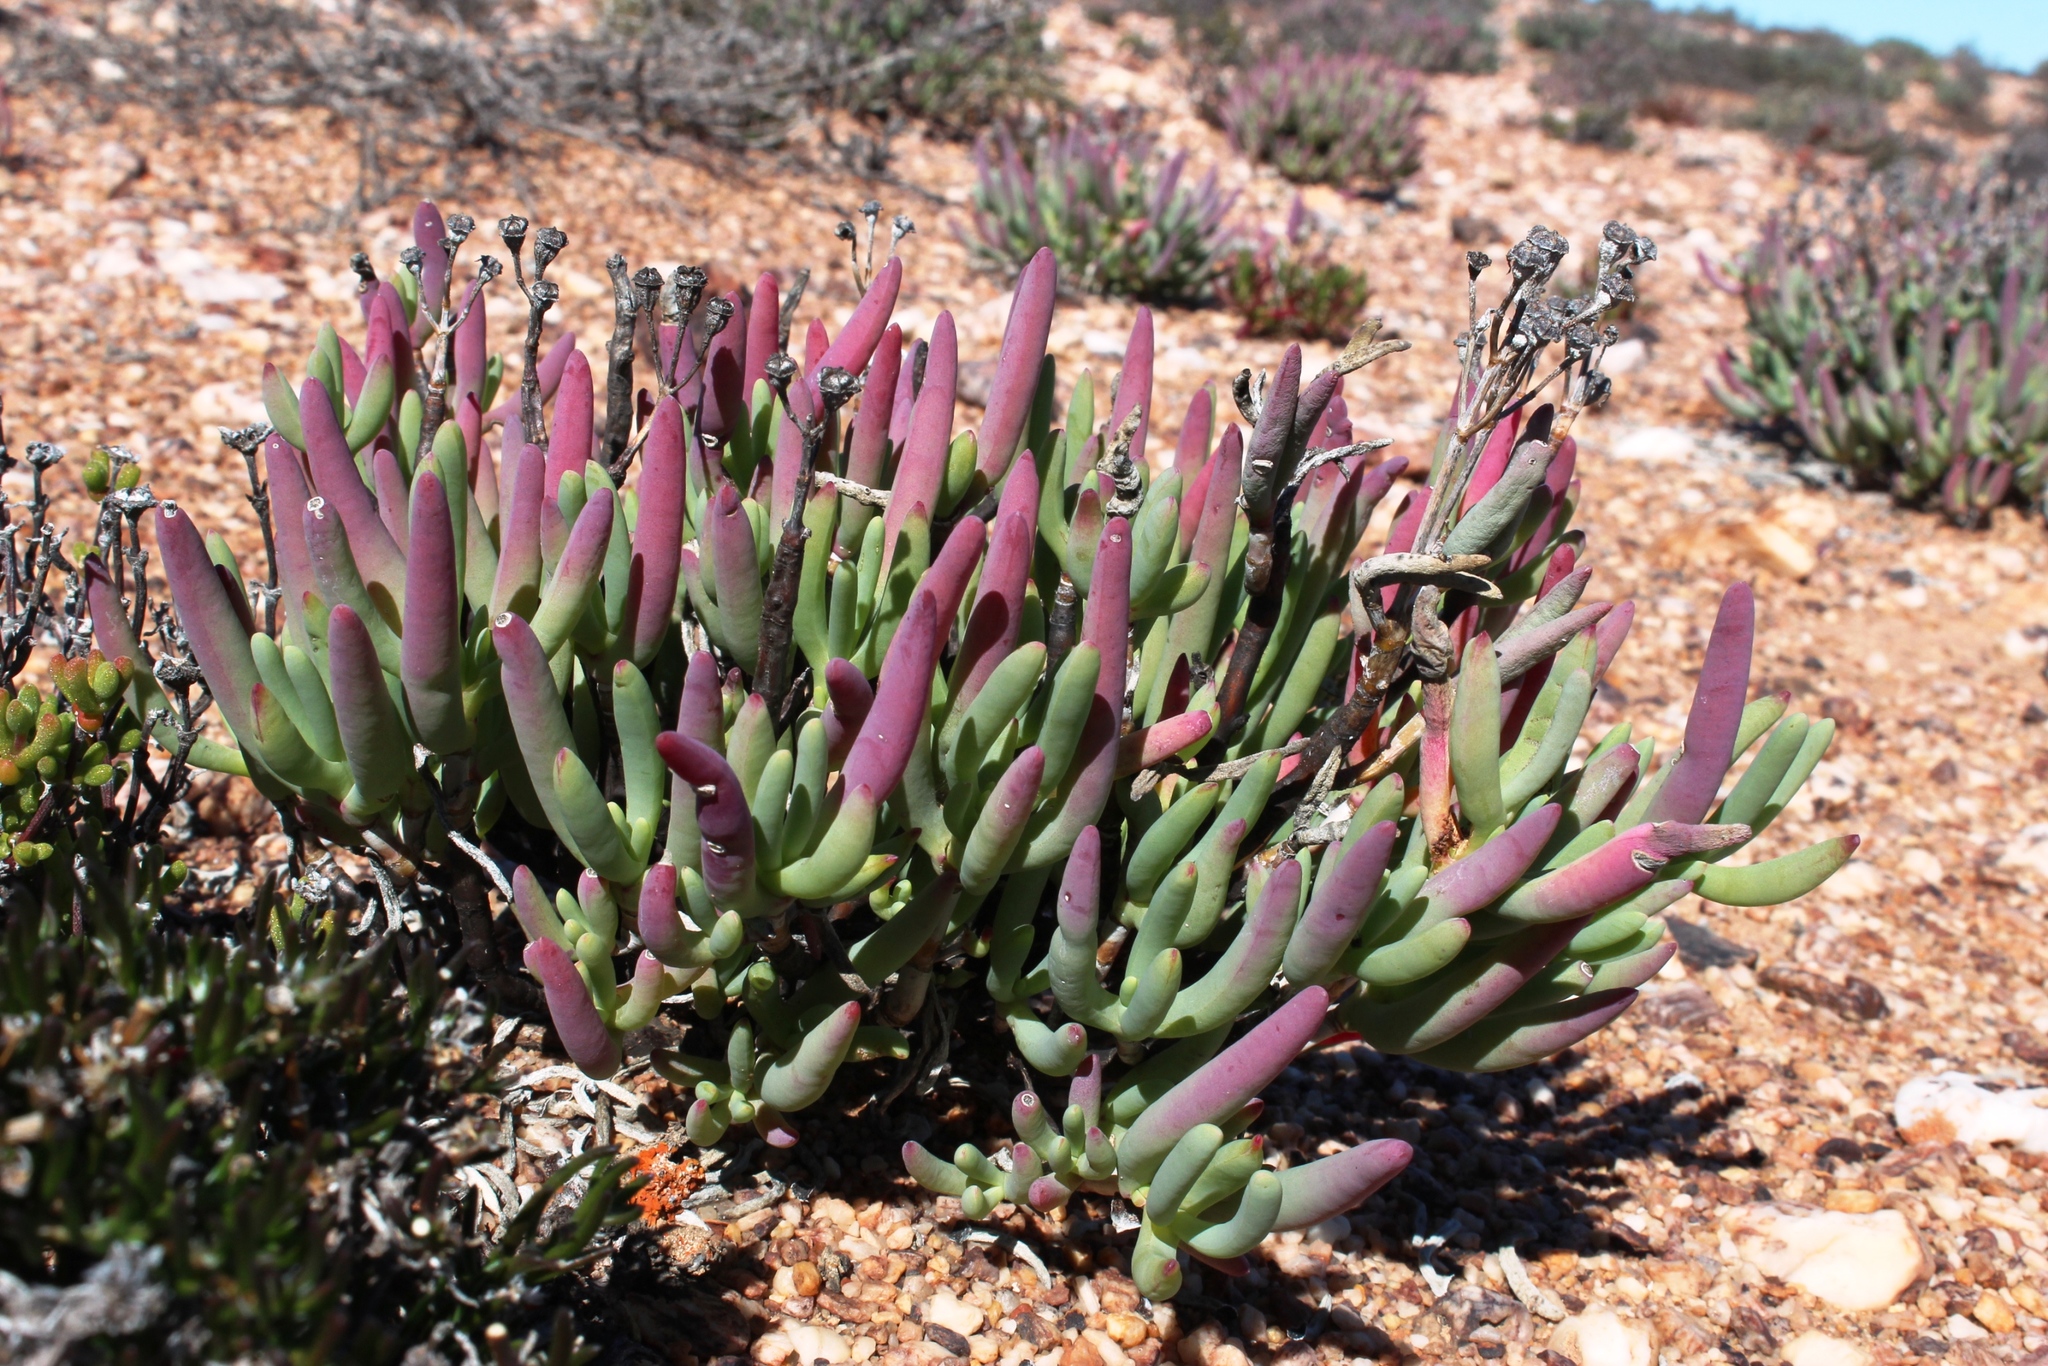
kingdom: Plantae
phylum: Tracheophyta
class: Magnoliopsida
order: Caryophyllales
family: Aizoaceae
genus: Ruschia
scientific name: Ruschia muelleri
